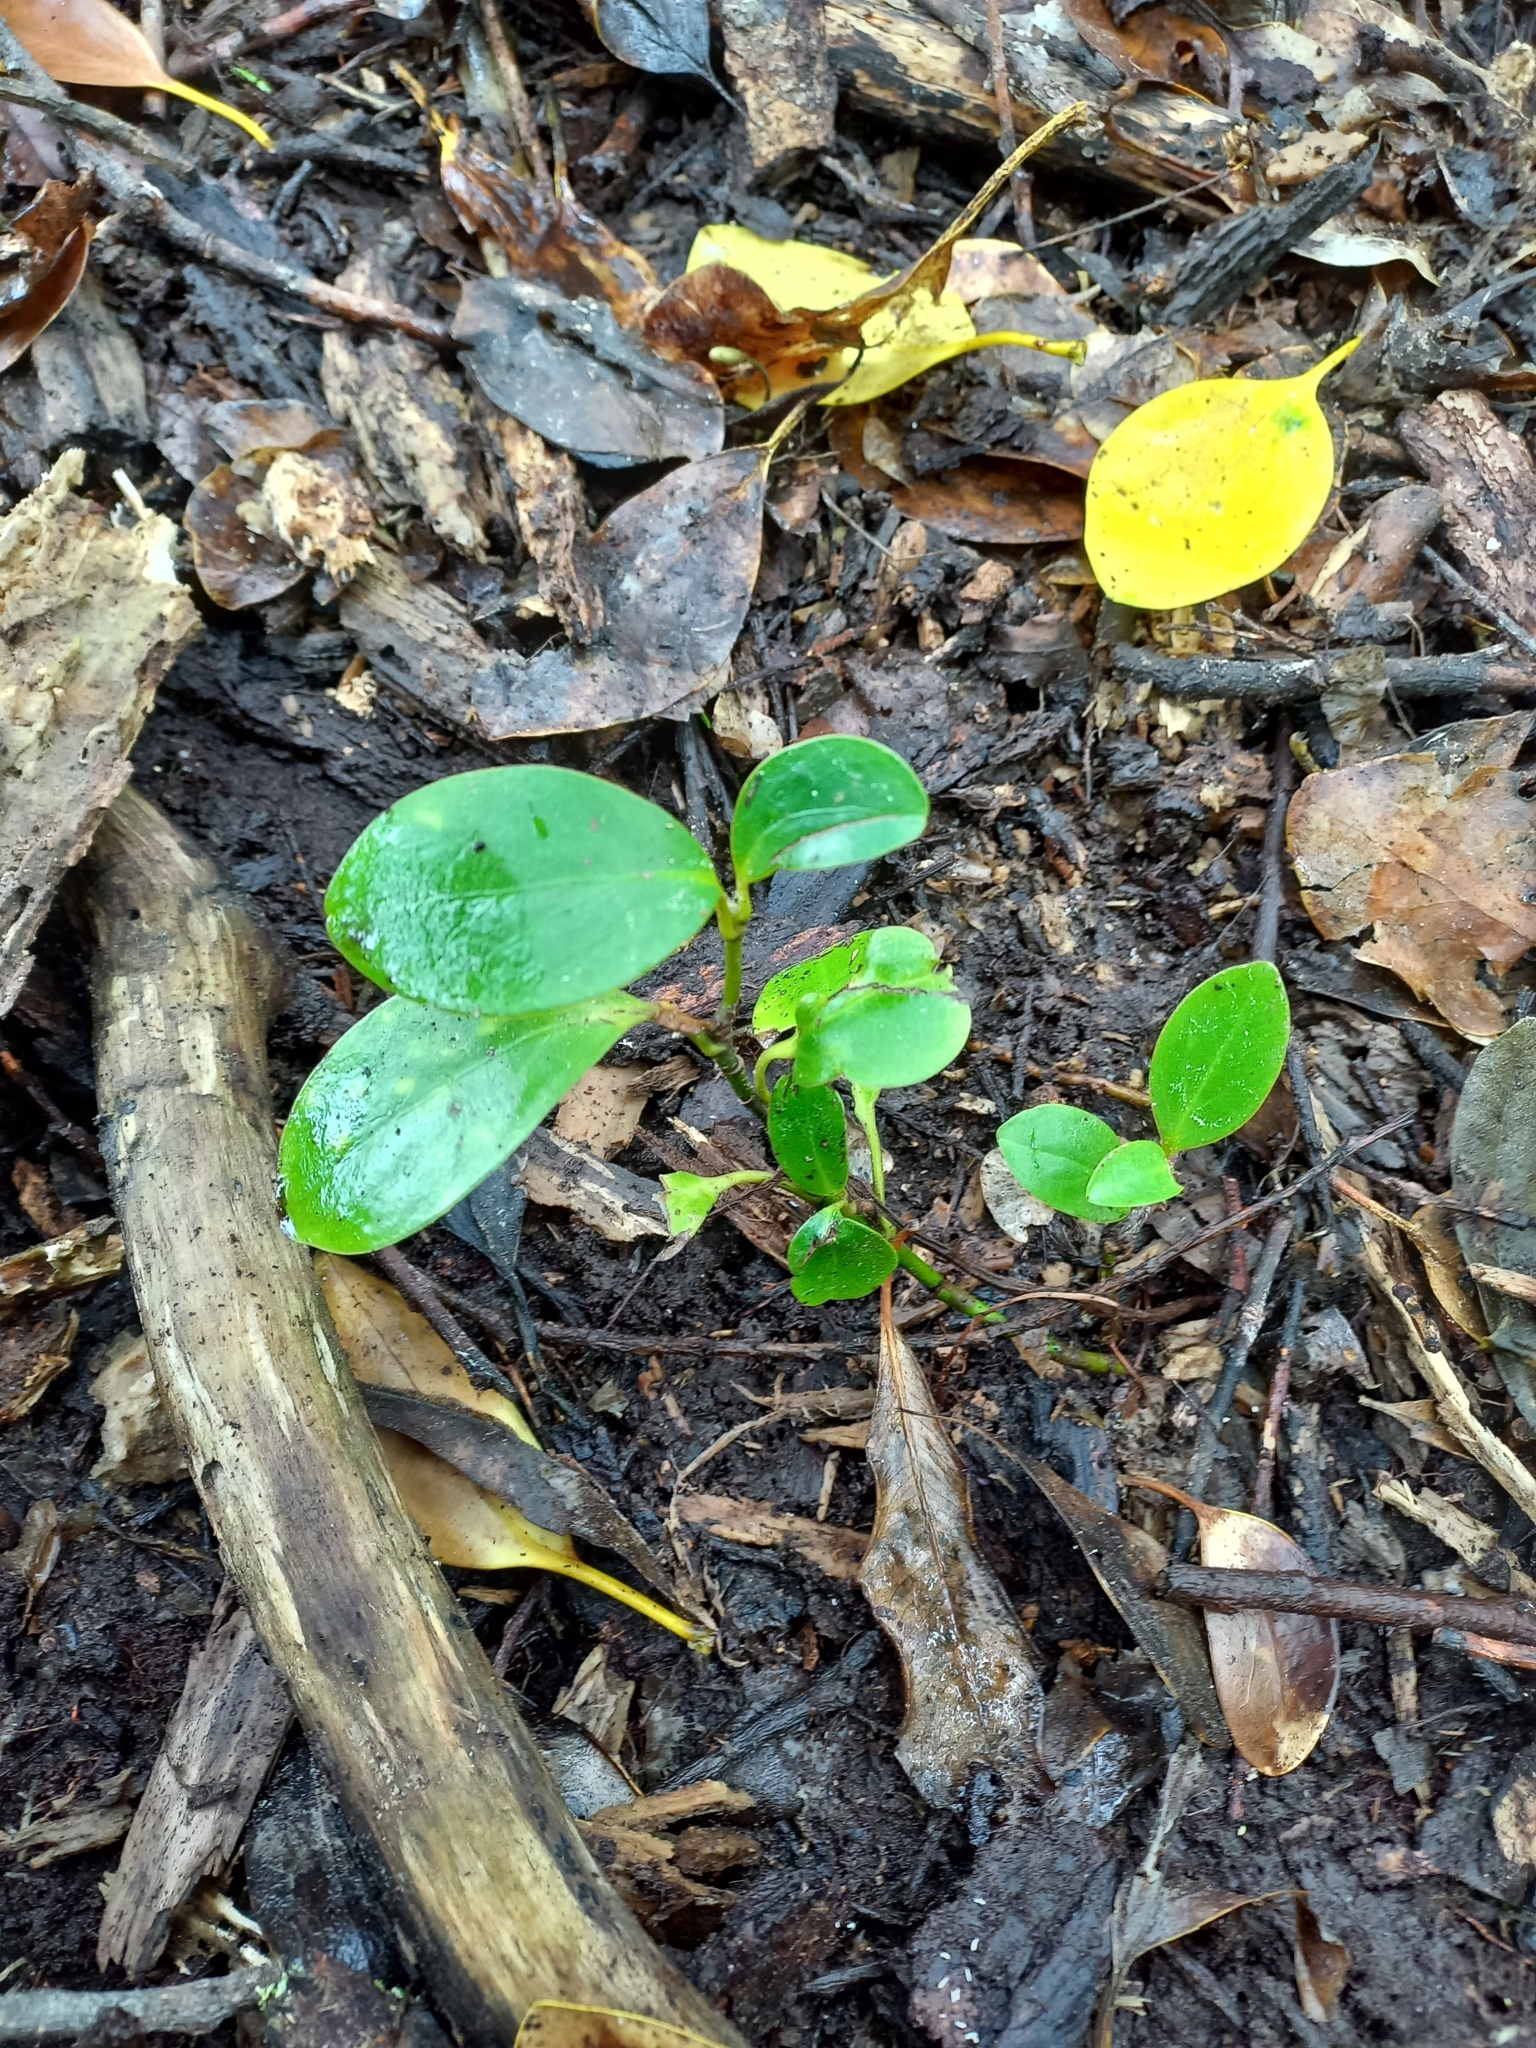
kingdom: Plantae
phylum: Tracheophyta
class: Magnoliopsida
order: Apiales
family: Griseliniaceae
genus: Griselinia
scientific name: Griselinia littoralis
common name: New zealand broadleaf
